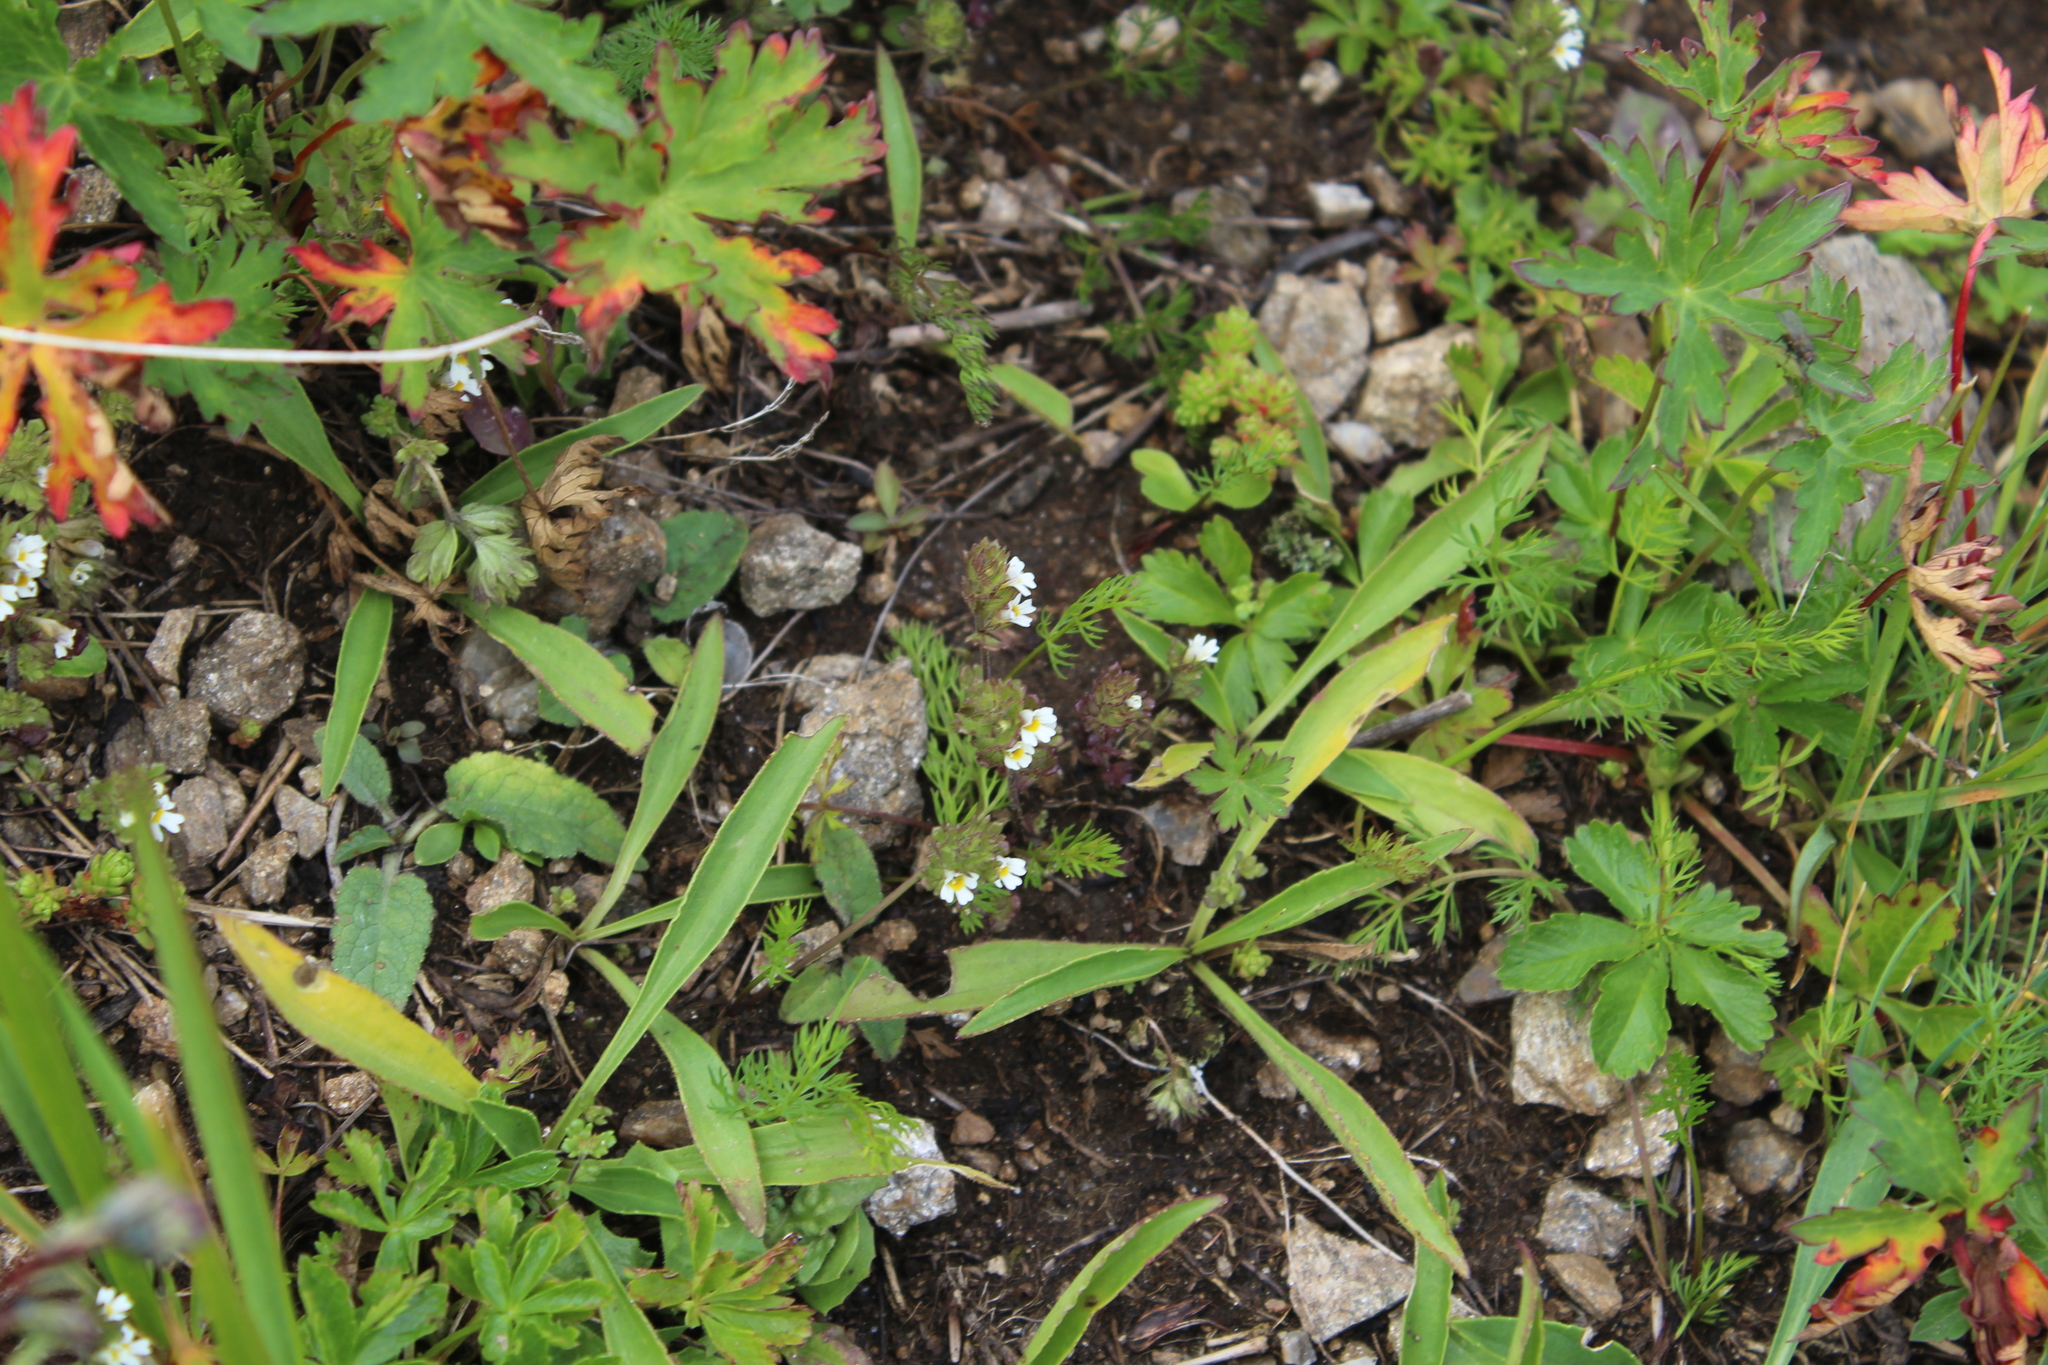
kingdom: Plantae
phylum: Tracheophyta
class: Magnoliopsida
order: Lamiales
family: Orobanchaceae
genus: Euphrasia
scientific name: Euphrasia ossica
